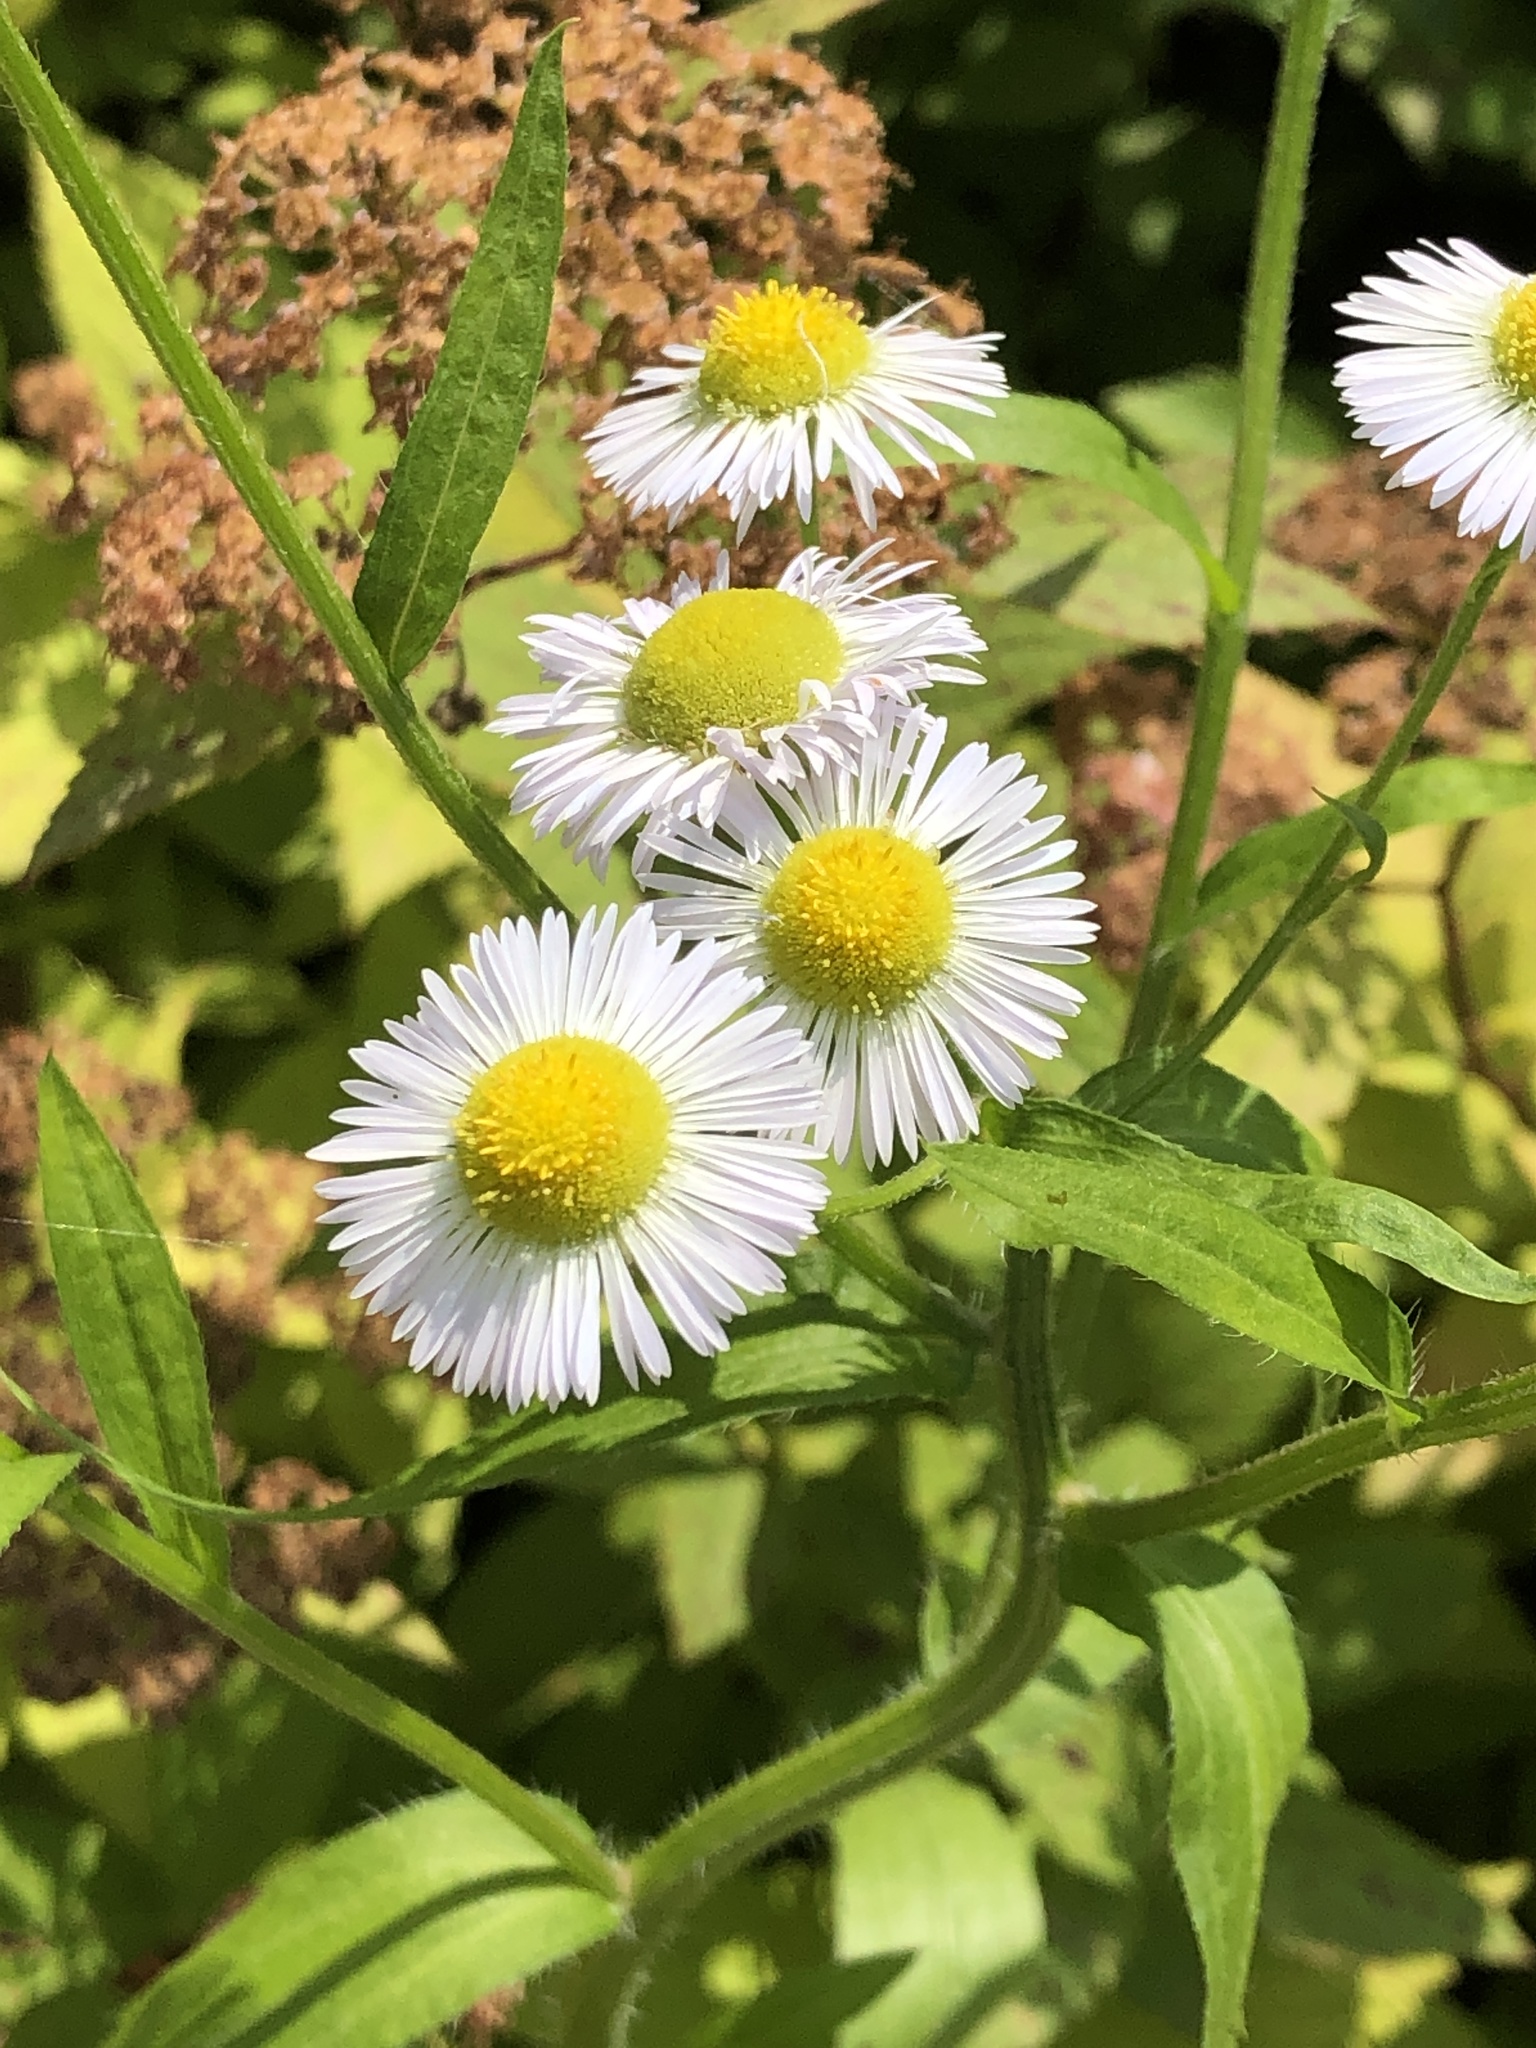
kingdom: Plantae
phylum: Tracheophyta
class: Magnoliopsida
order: Asterales
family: Asteraceae
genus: Erigeron
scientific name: Erigeron annuus
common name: Tall fleabane
